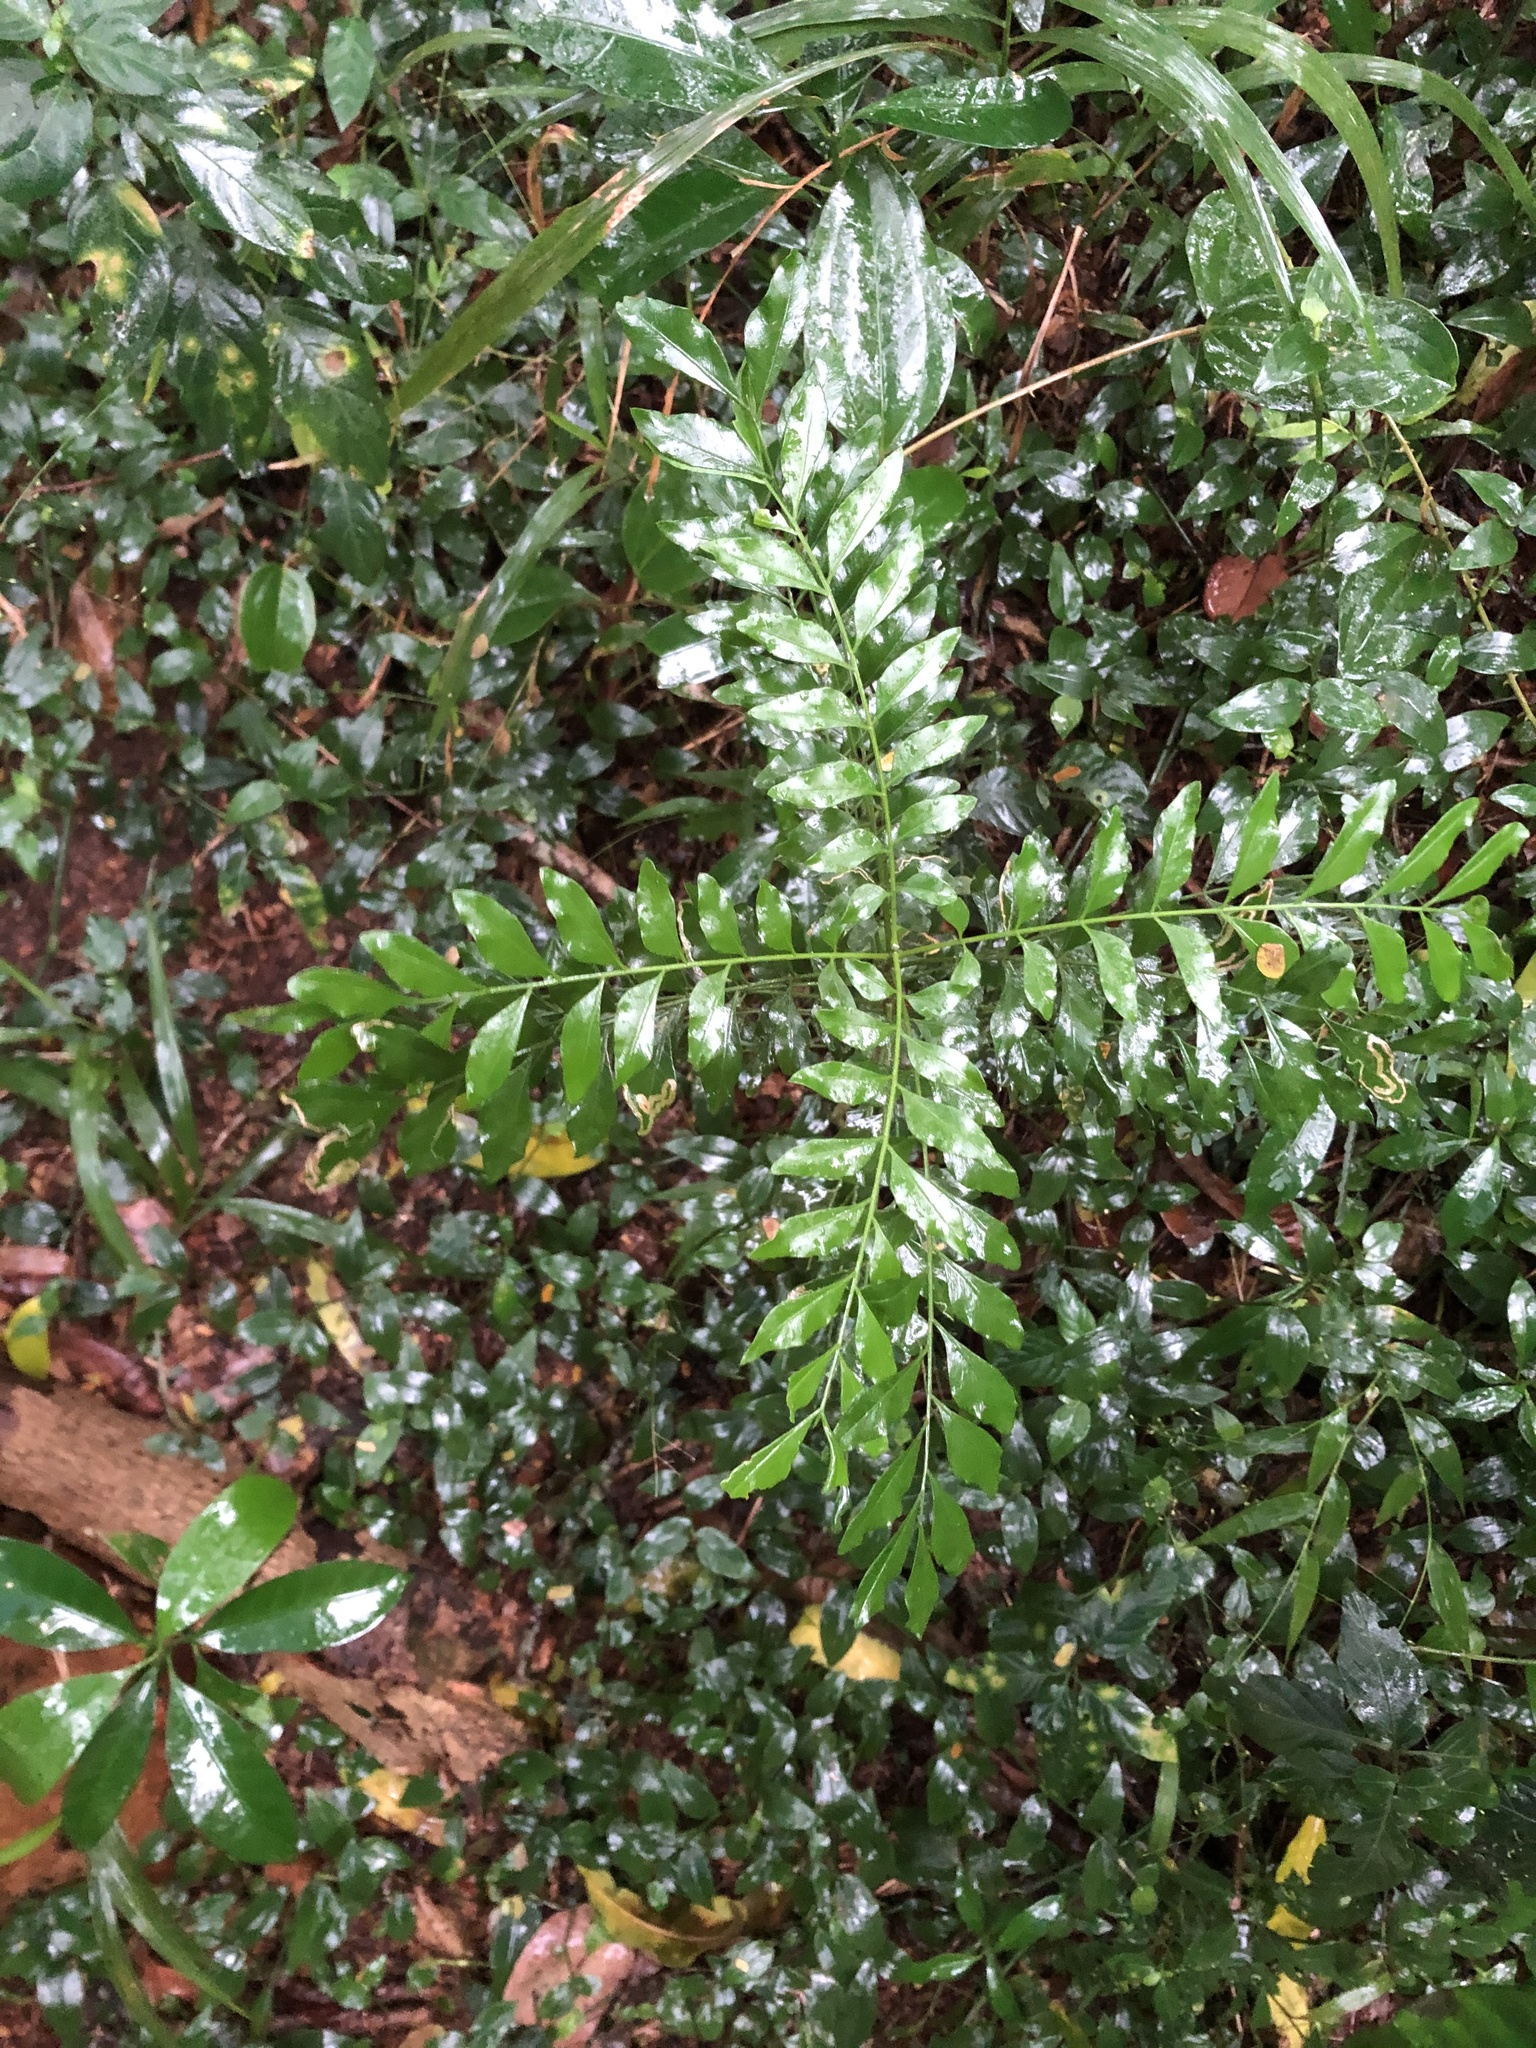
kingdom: Plantae
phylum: Tracheophyta
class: Magnoliopsida
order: Sapindales
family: Rutaceae
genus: Clausena
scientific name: Clausena anisata
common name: Horsewood
